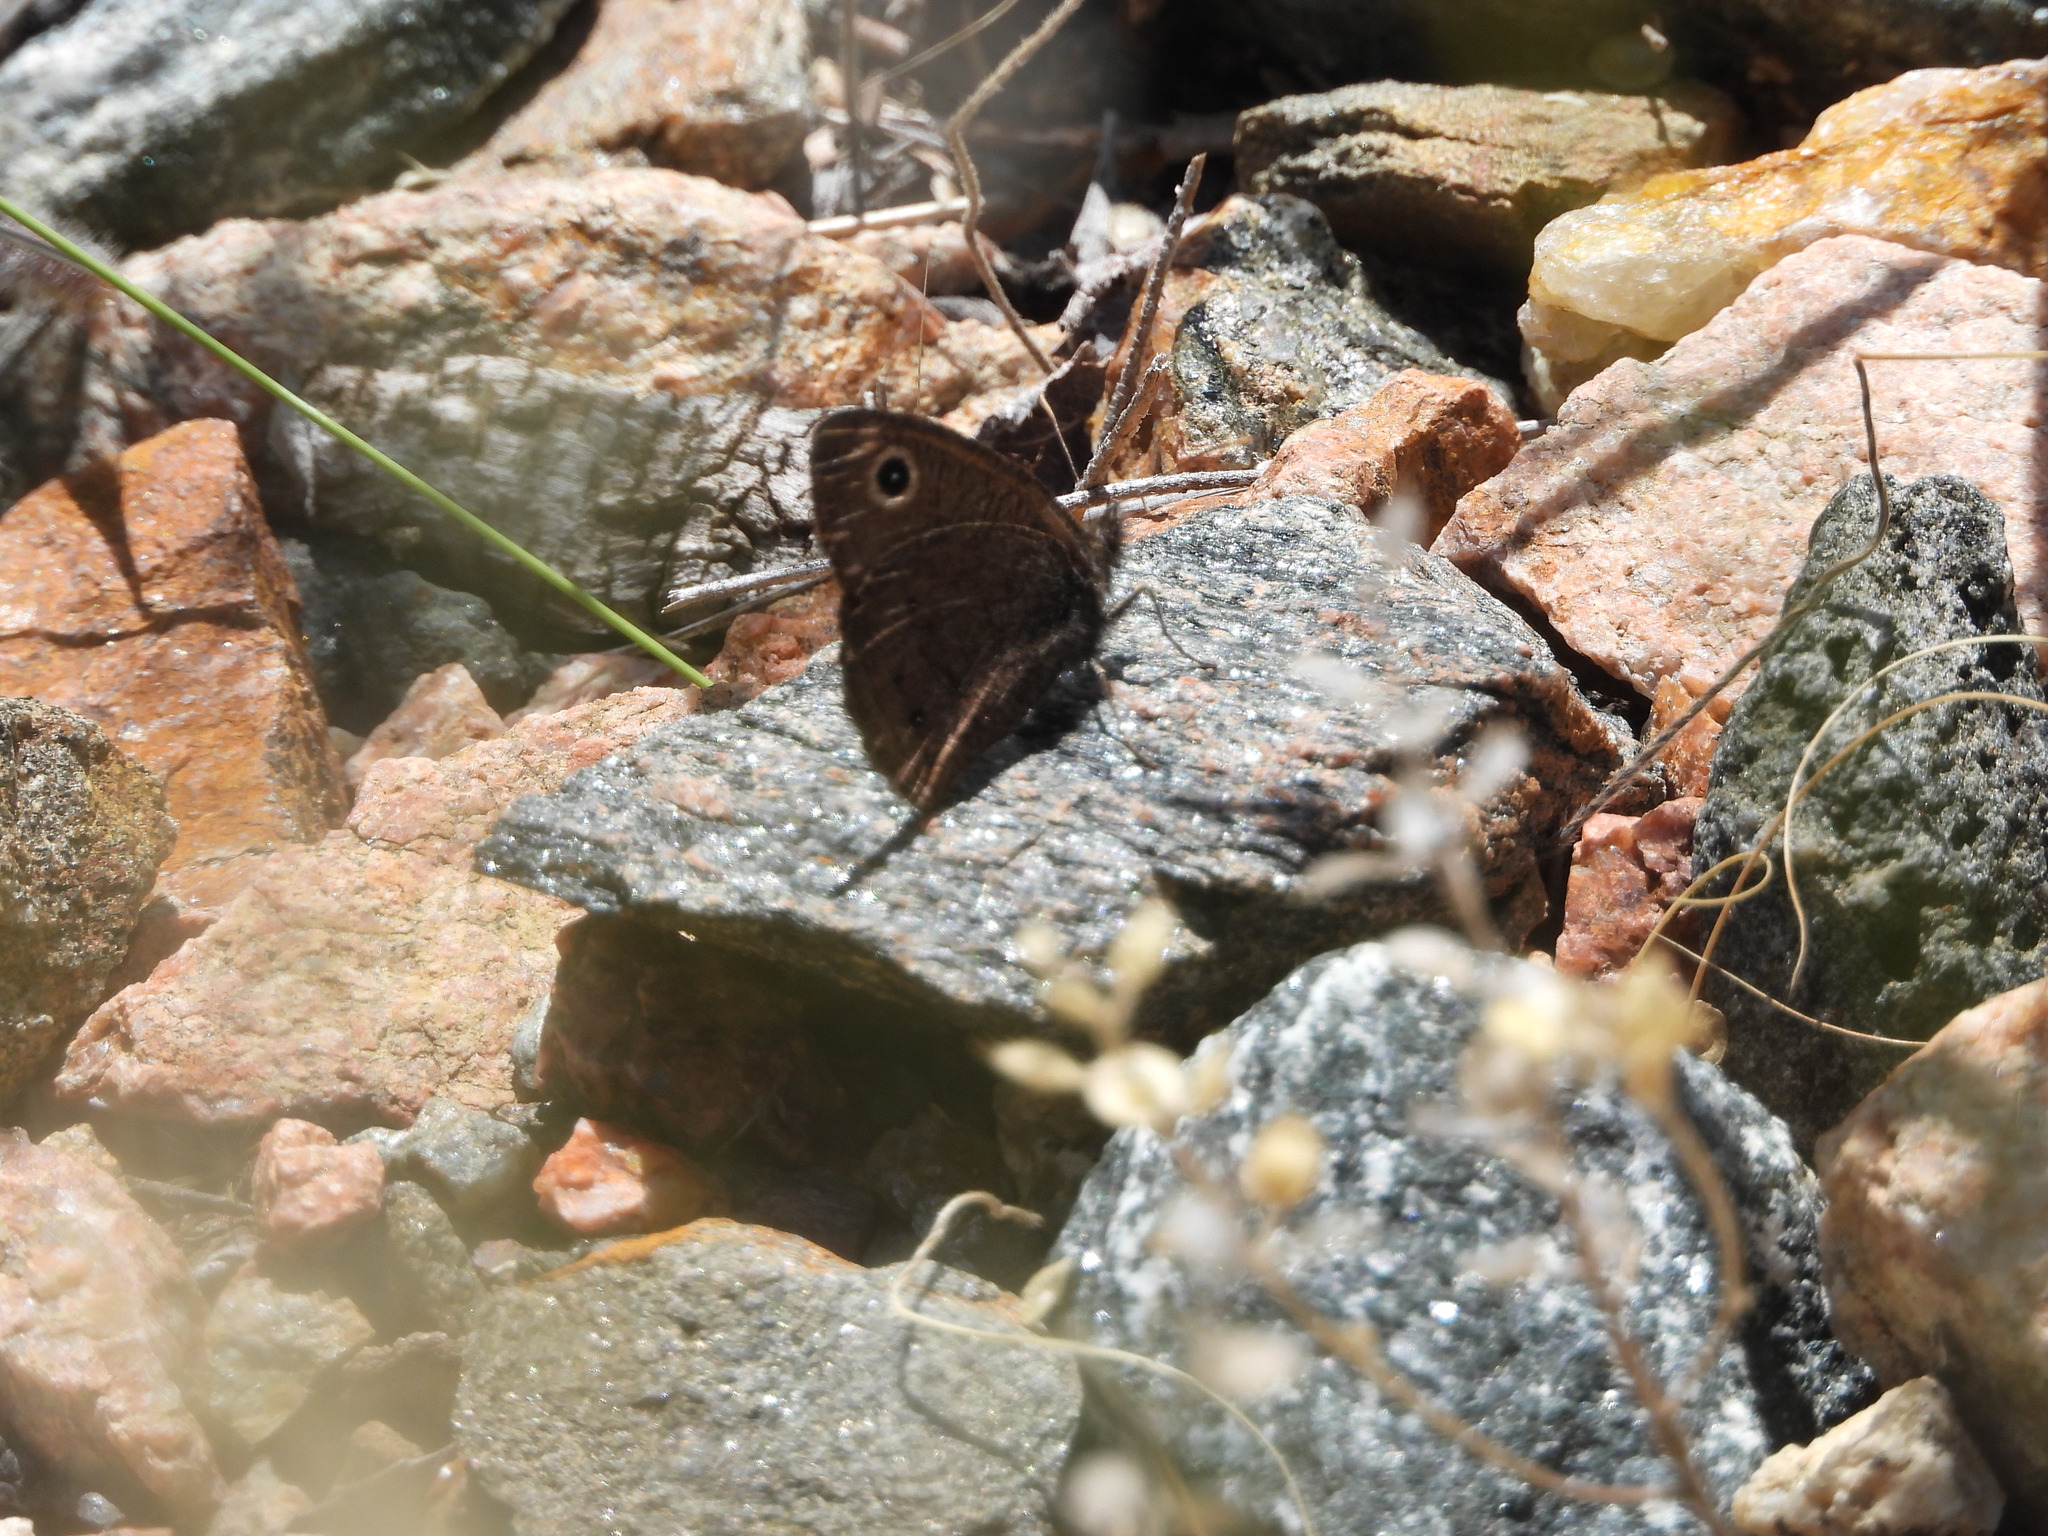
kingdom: Animalia
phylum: Arthropoda
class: Insecta
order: Lepidoptera
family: Nymphalidae
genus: Cercyonis
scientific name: Cercyonis oetus
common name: Small wood-nymph
